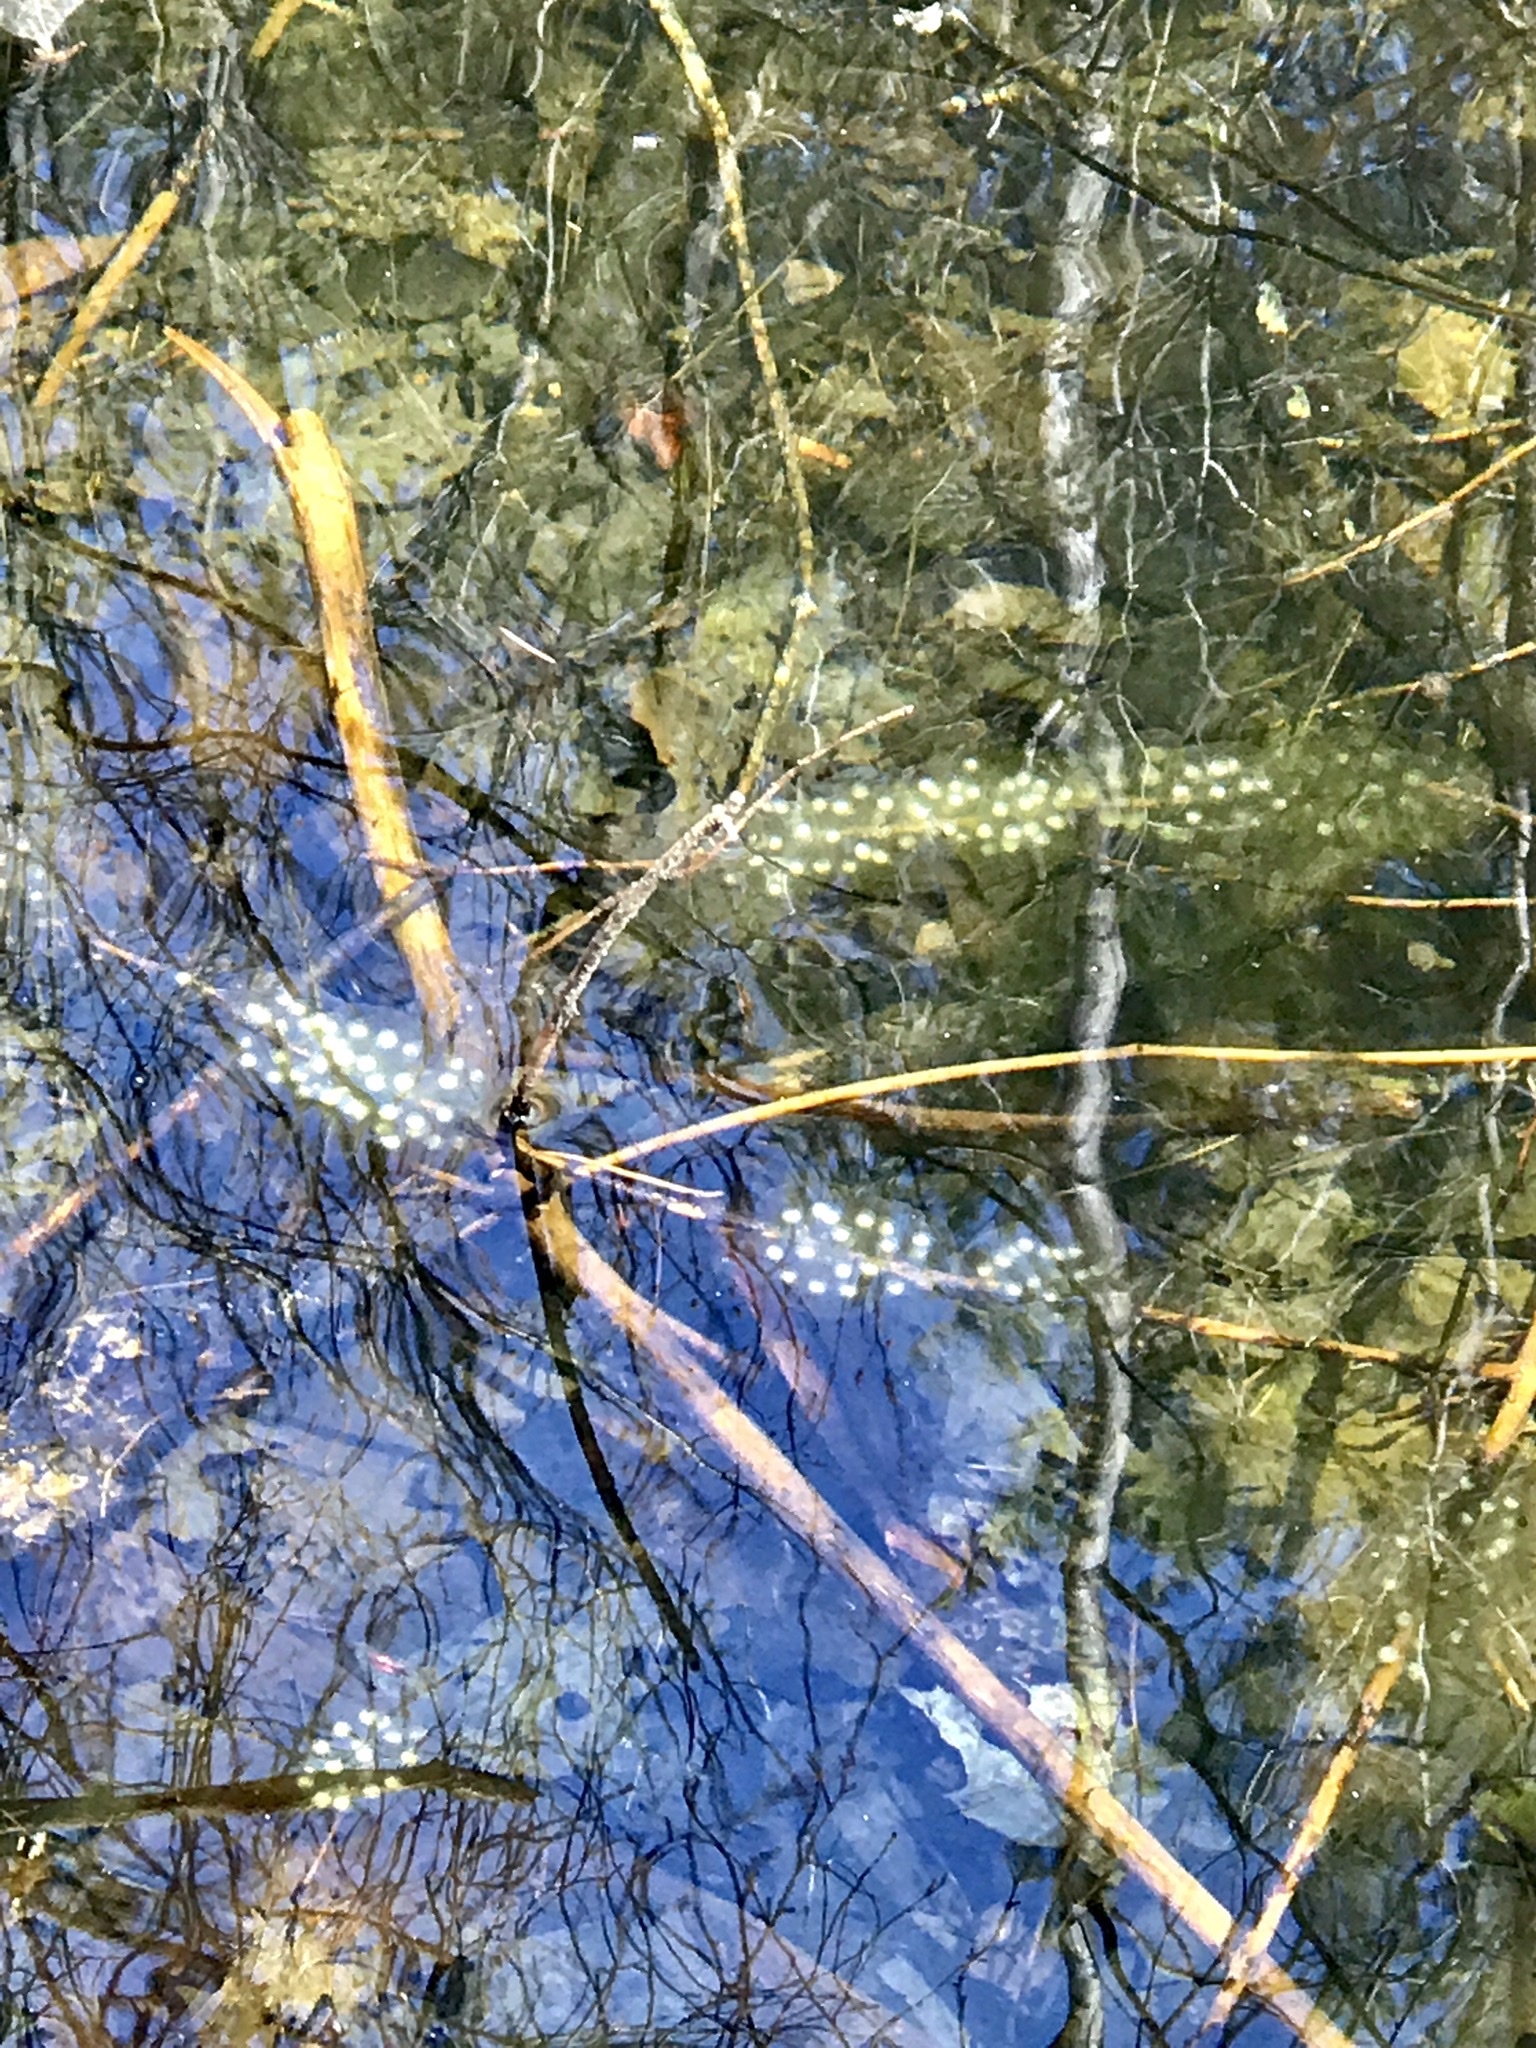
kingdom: Animalia
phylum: Chordata
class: Amphibia
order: Caudata
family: Ambystomatidae
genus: Ambystoma
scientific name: Ambystoma unisexual
